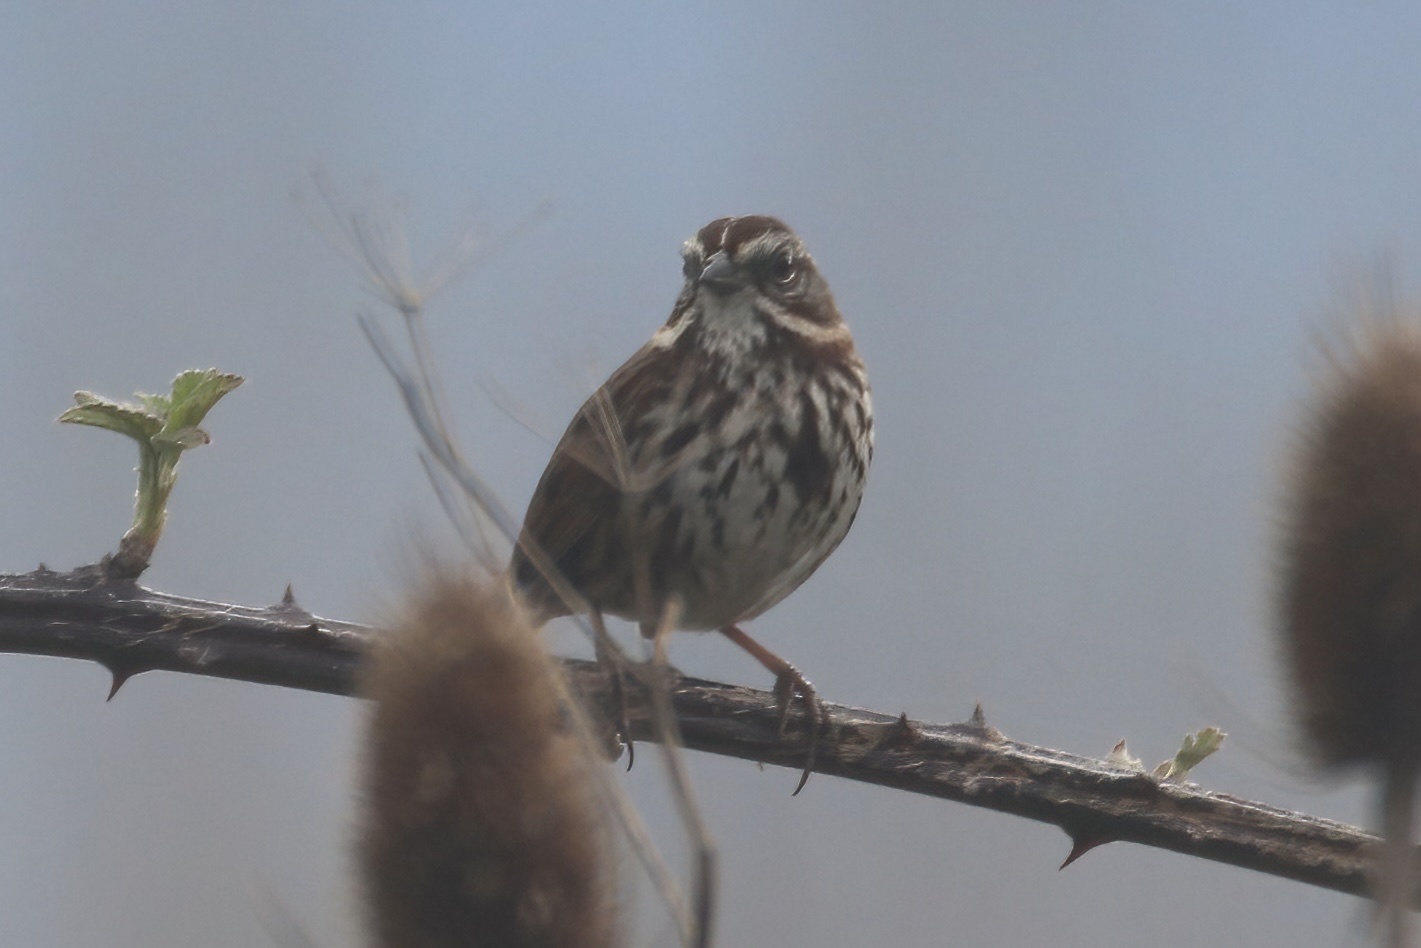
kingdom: Animalia
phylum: Chordata
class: Aves
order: Passeriformes
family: Passerellidae
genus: Melospiza
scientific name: Melospiza melodia
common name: Song sparrow
